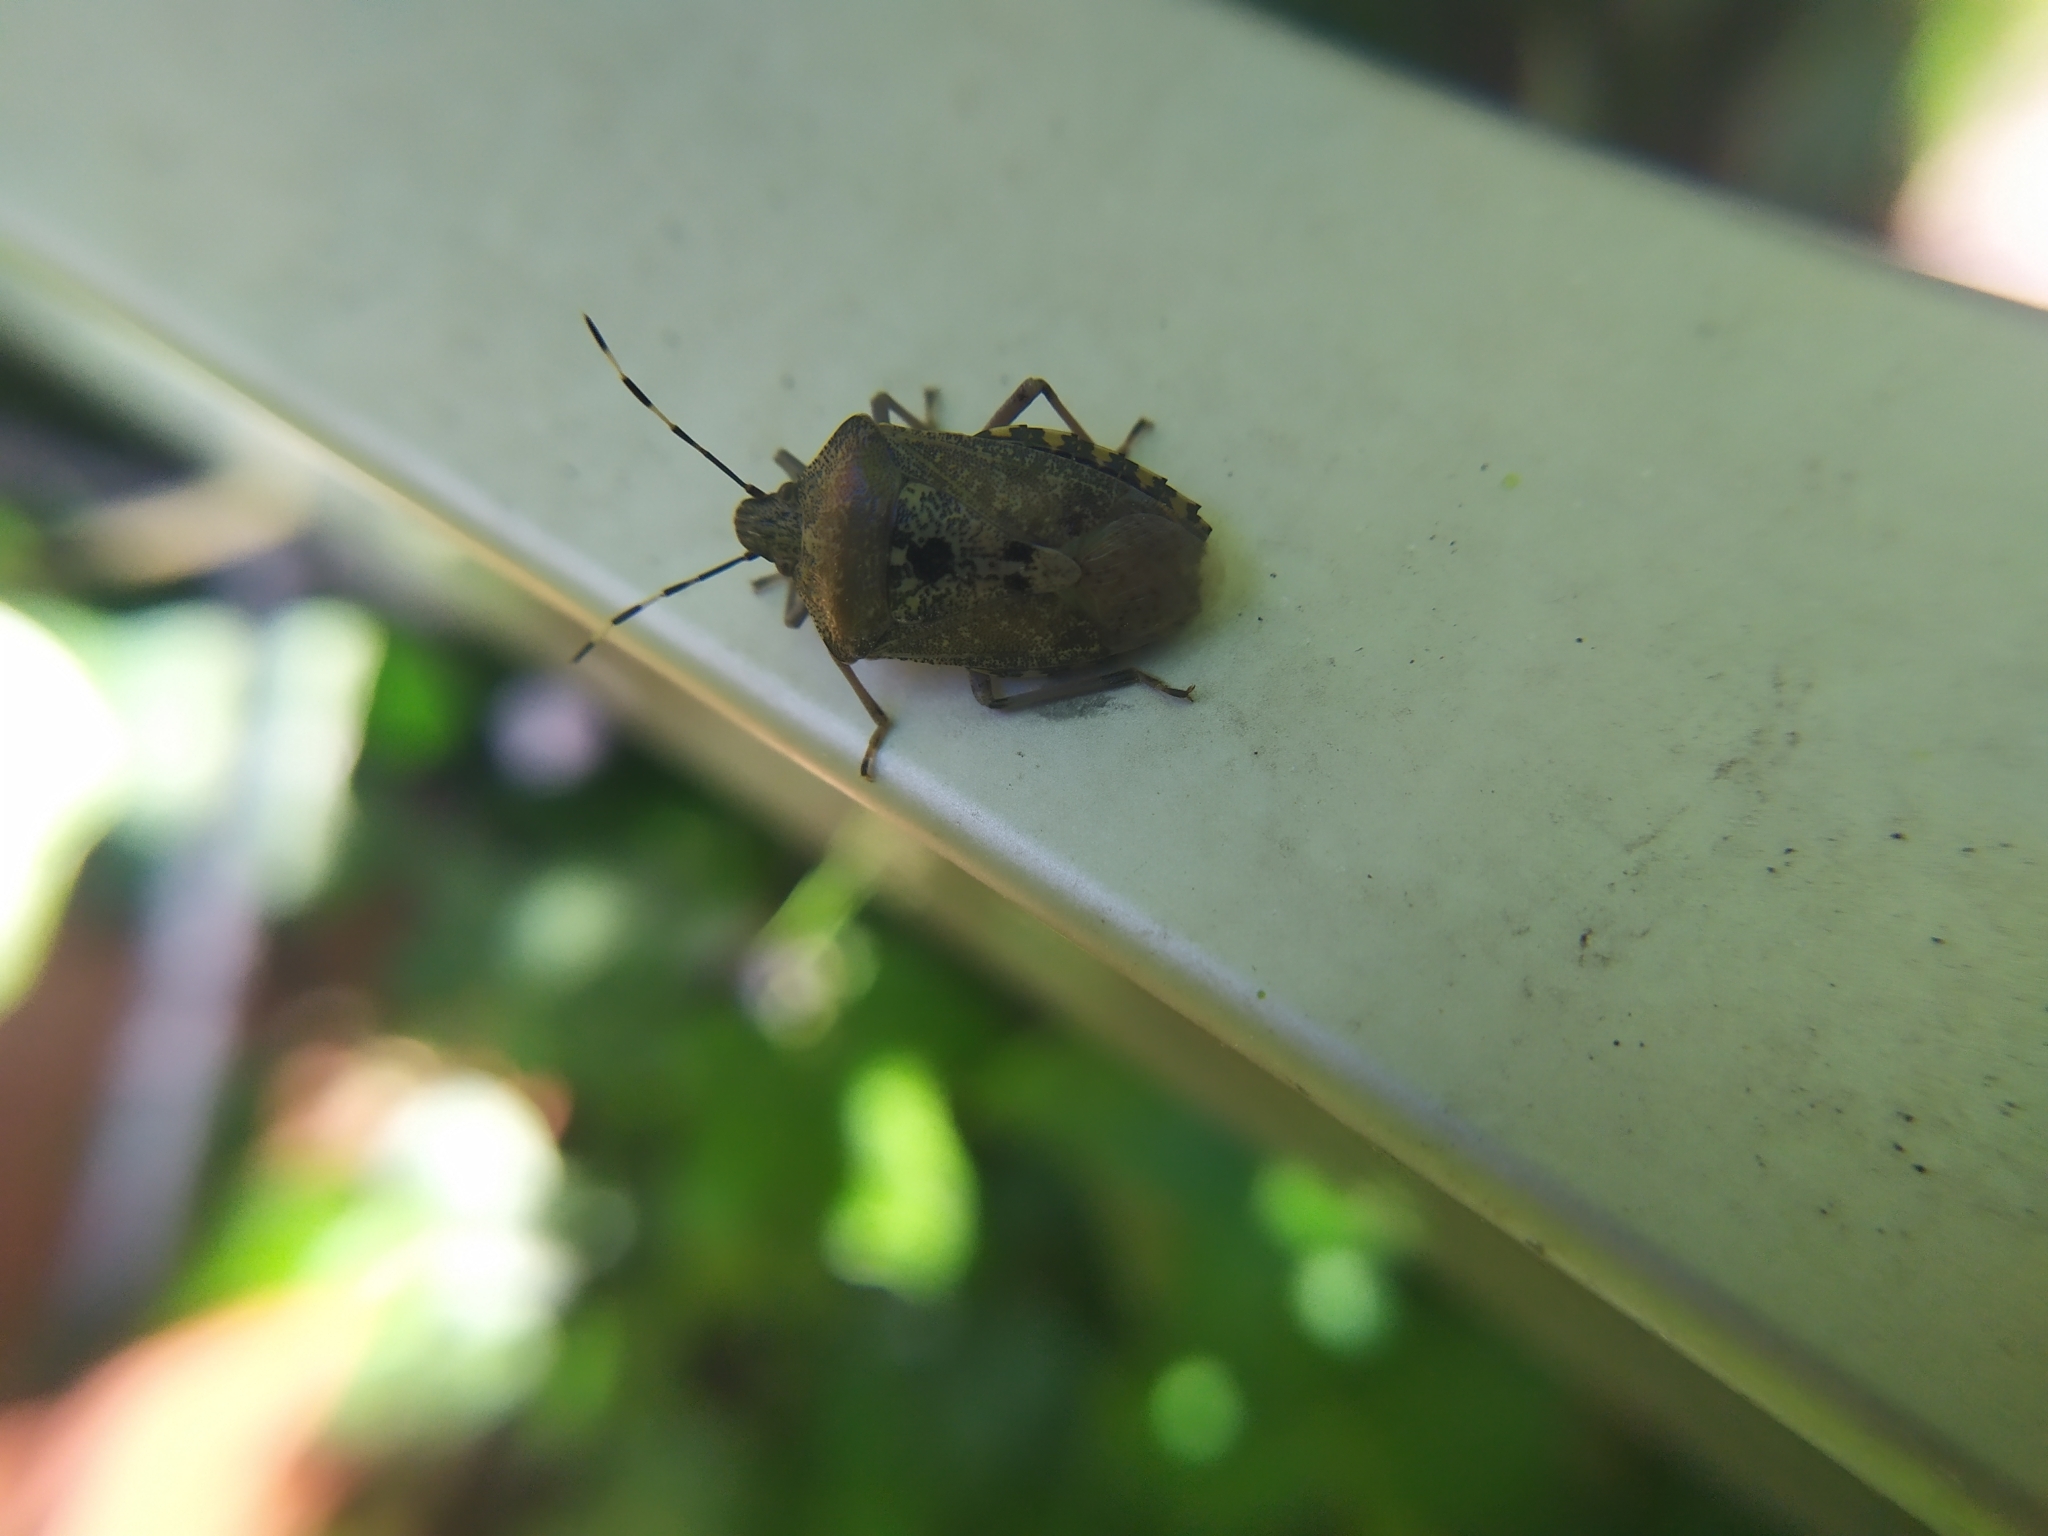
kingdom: Animalia
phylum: Arthropoda
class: Insecta
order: Hemiptera
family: Pentatomidae
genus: Rhaphigaster
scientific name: Rhaphigaster nebulosa
